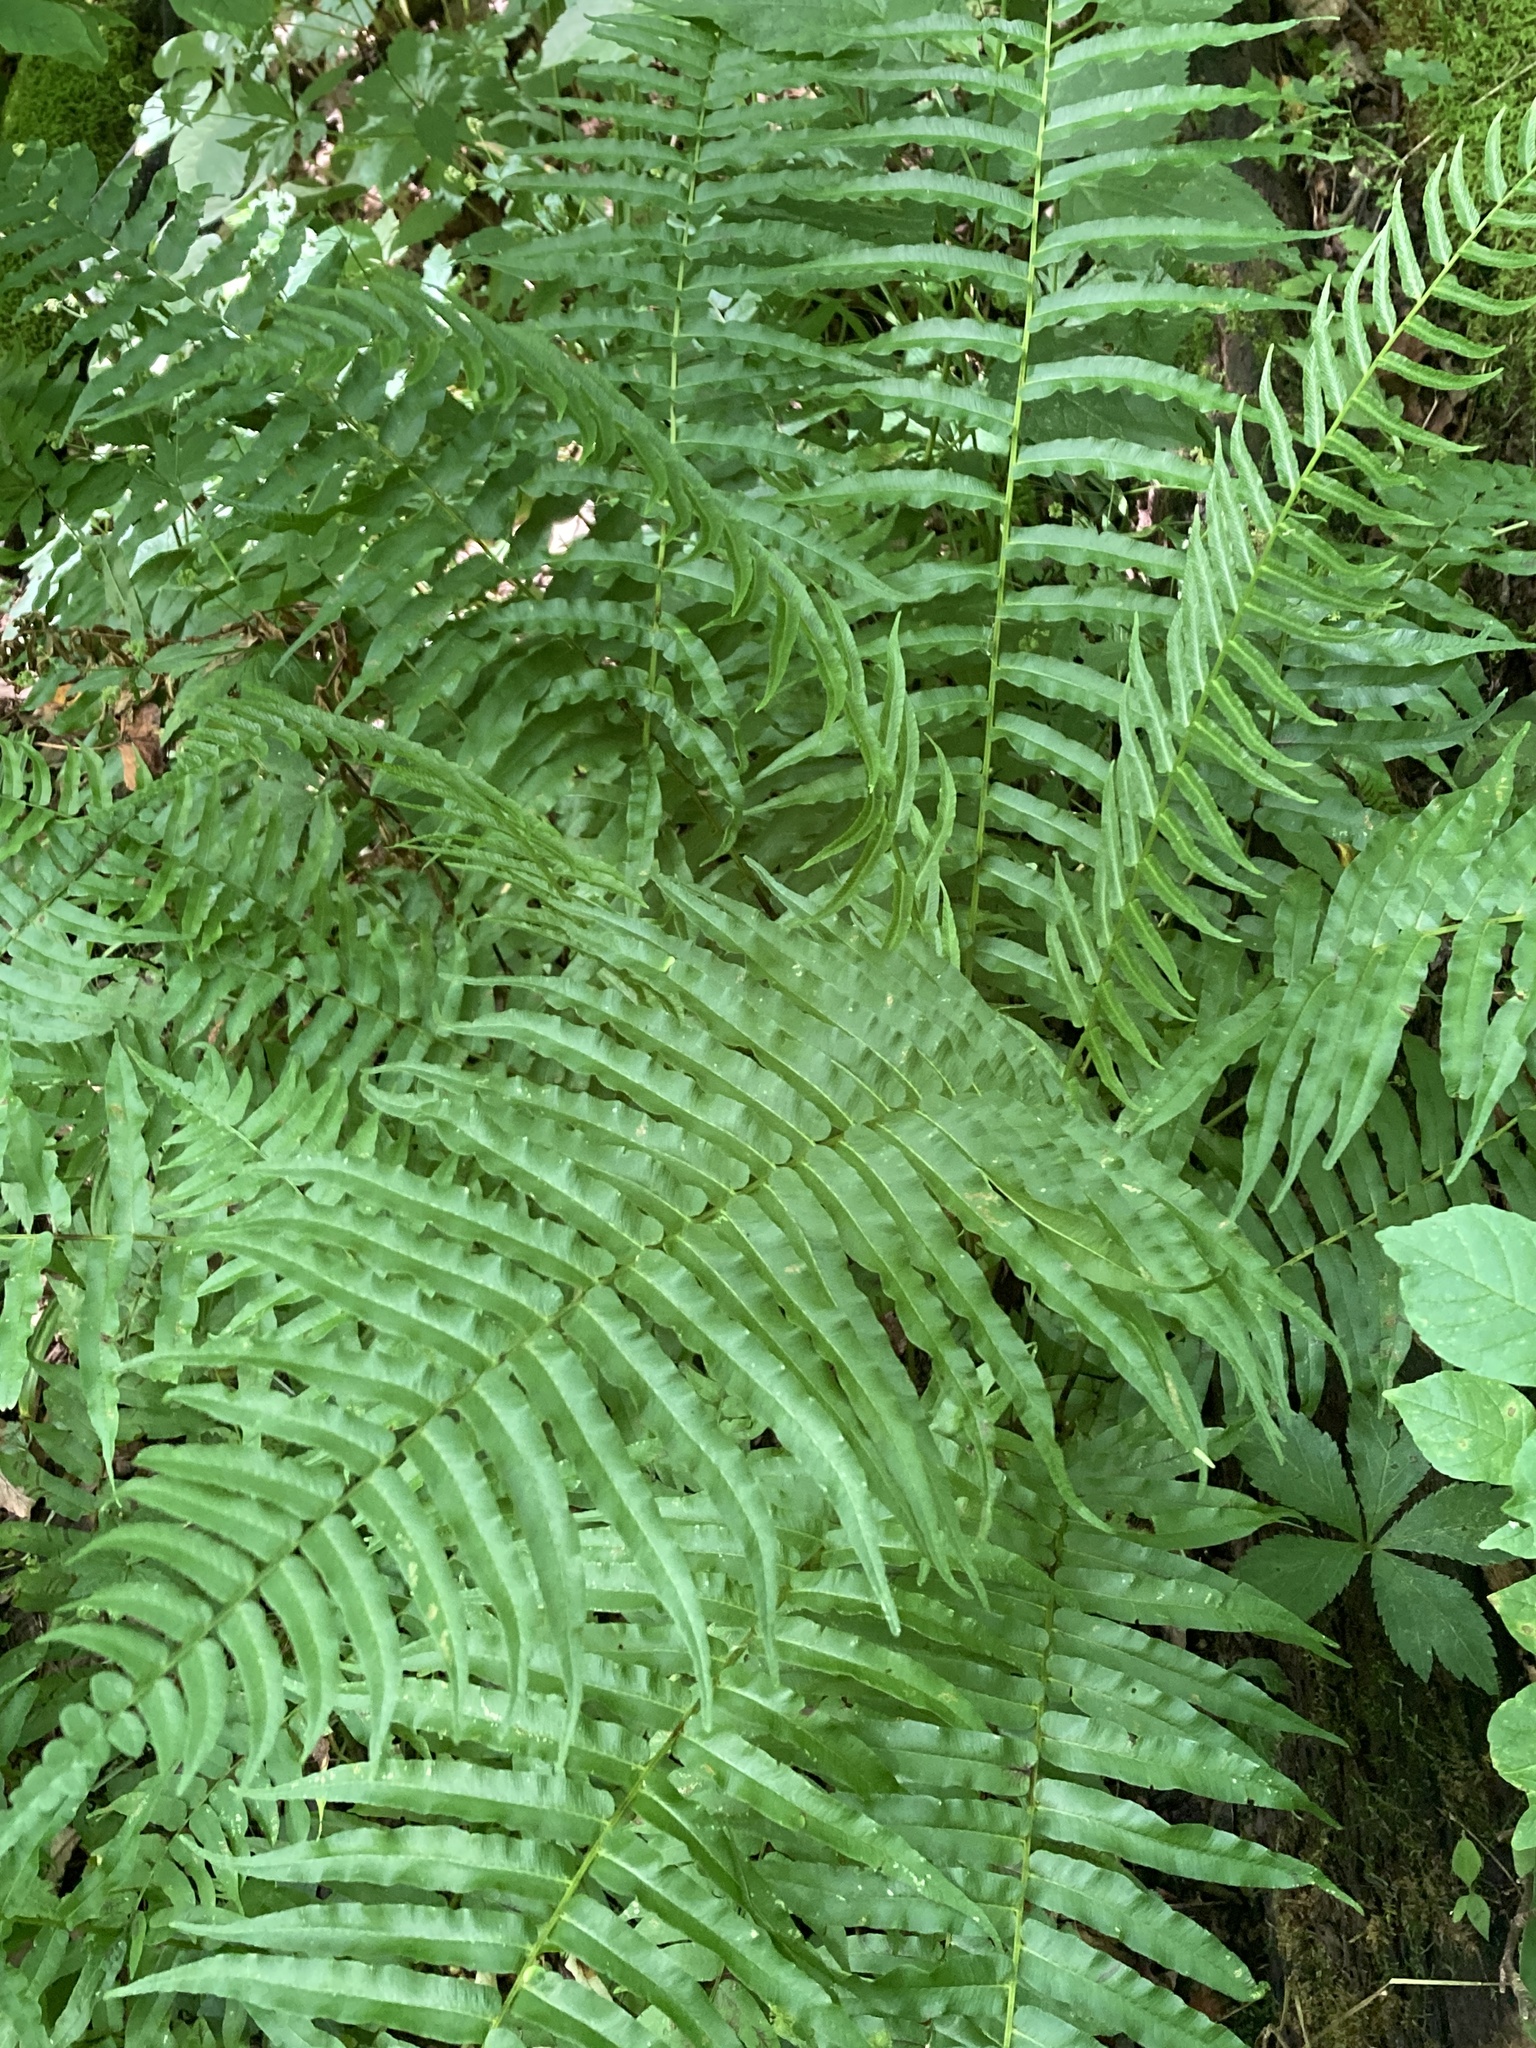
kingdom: Plantae
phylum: Tracheophyta
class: Polypodiopsida
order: Polypodiales
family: Diplaziopsidaceae
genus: Homalosorus
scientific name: Homalosorus pycnocarpos
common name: Glade fern
